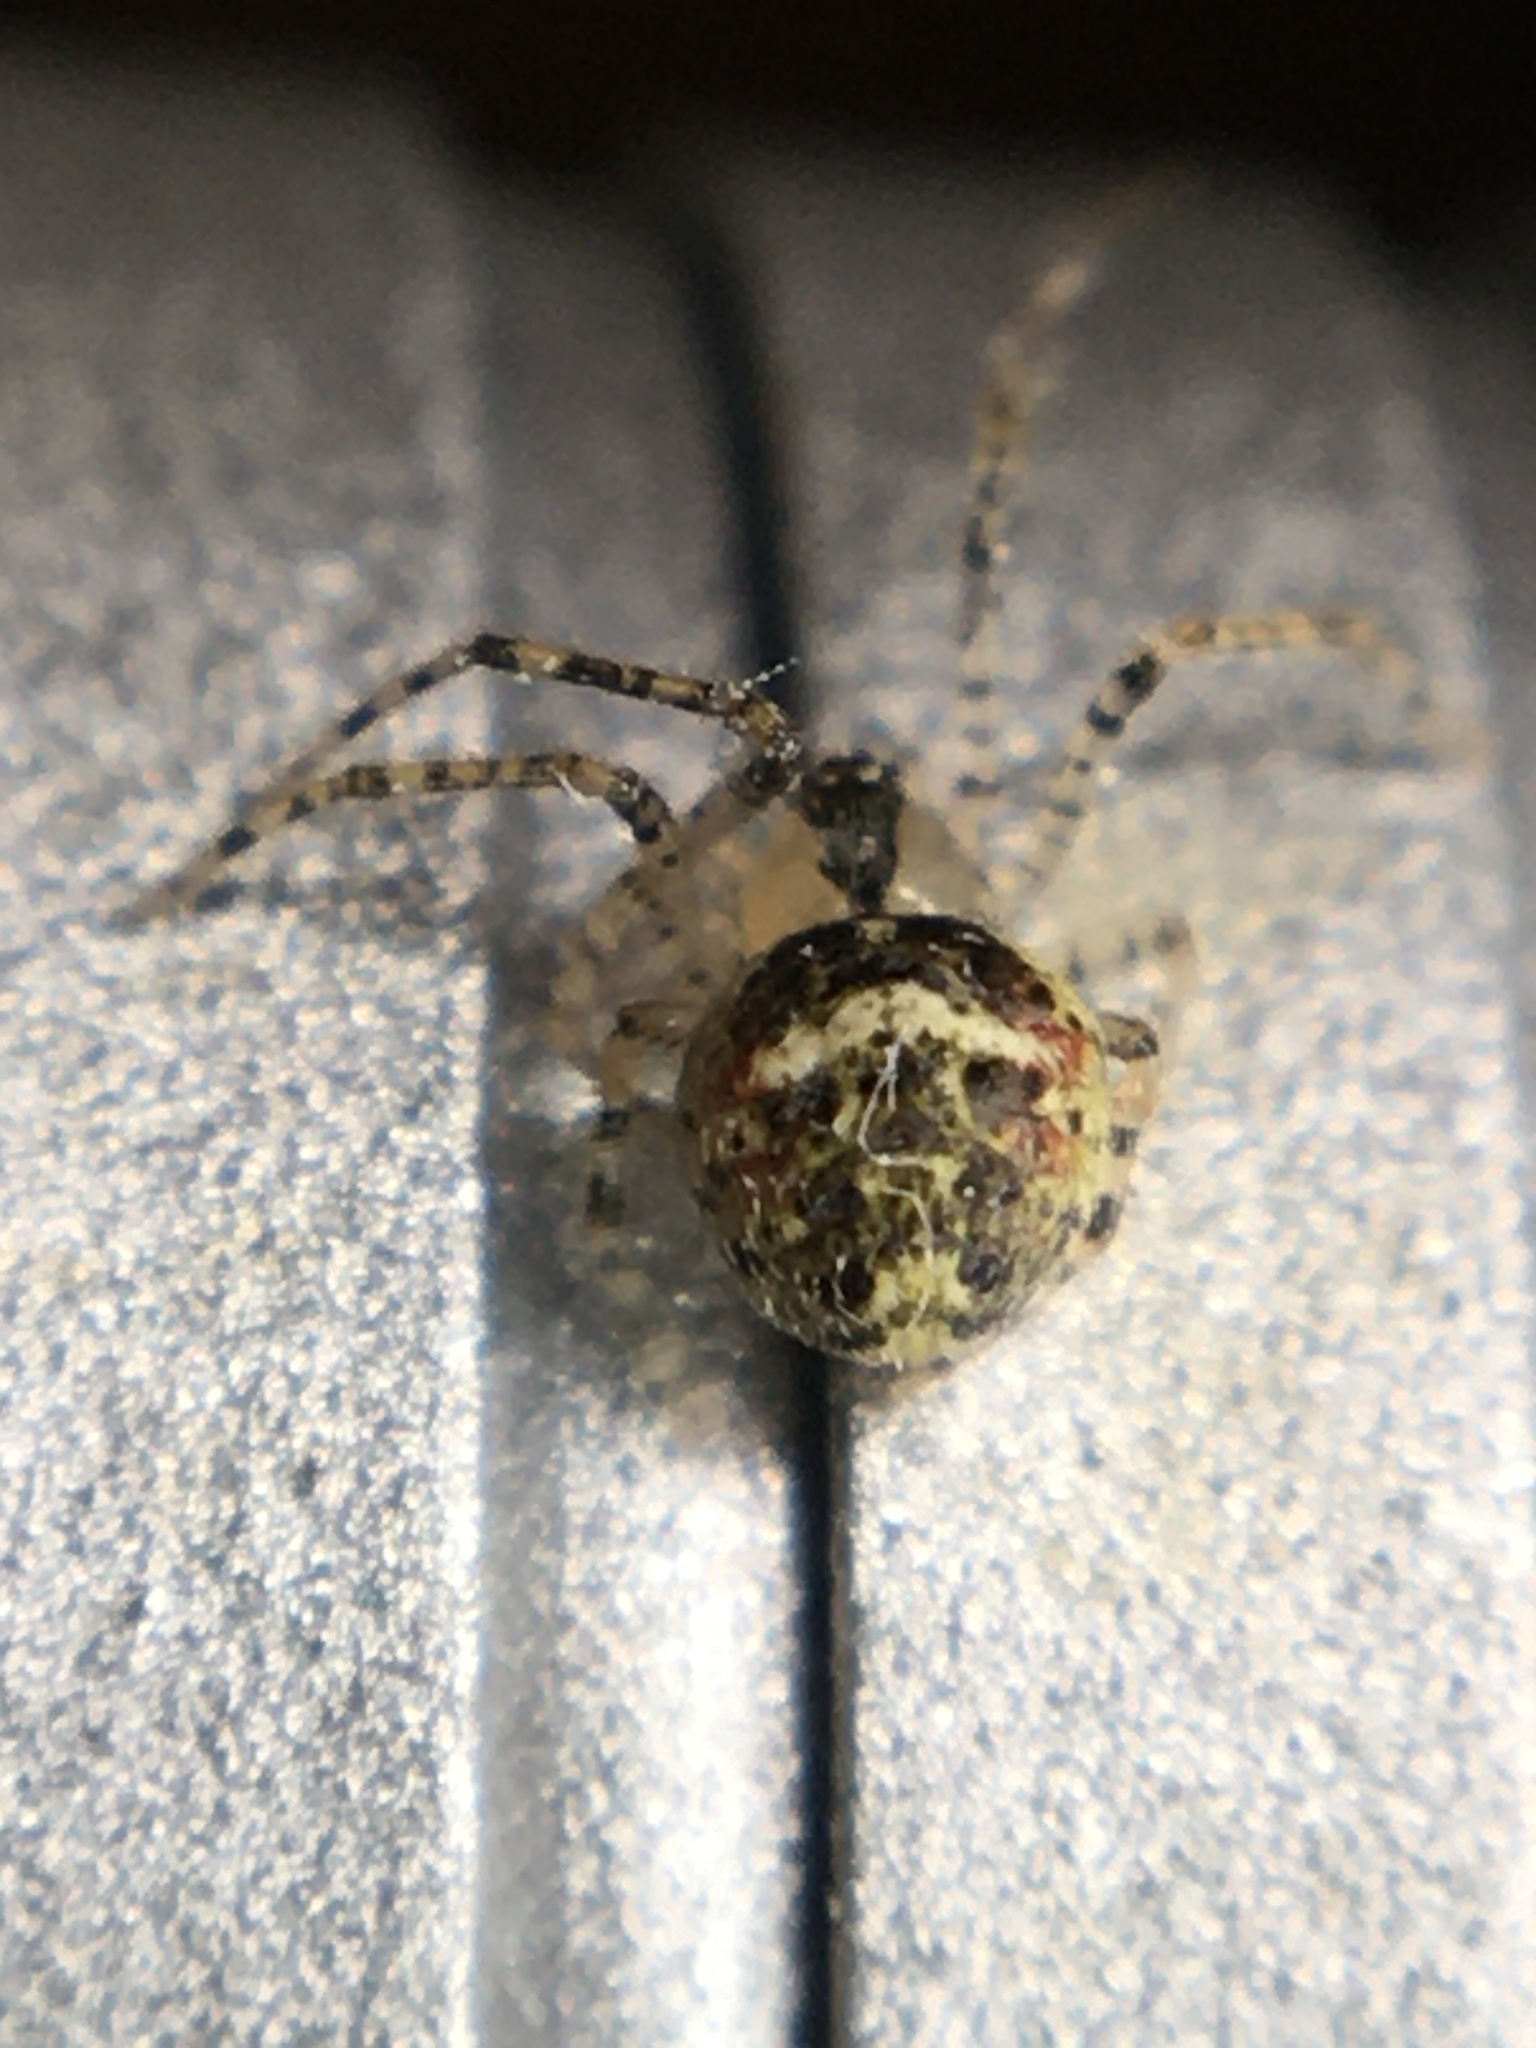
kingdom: Animalia
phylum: Arthropoda
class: Arachnida
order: Araneae
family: Theridiidae
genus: Platnickina
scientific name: Platnickina tincta
